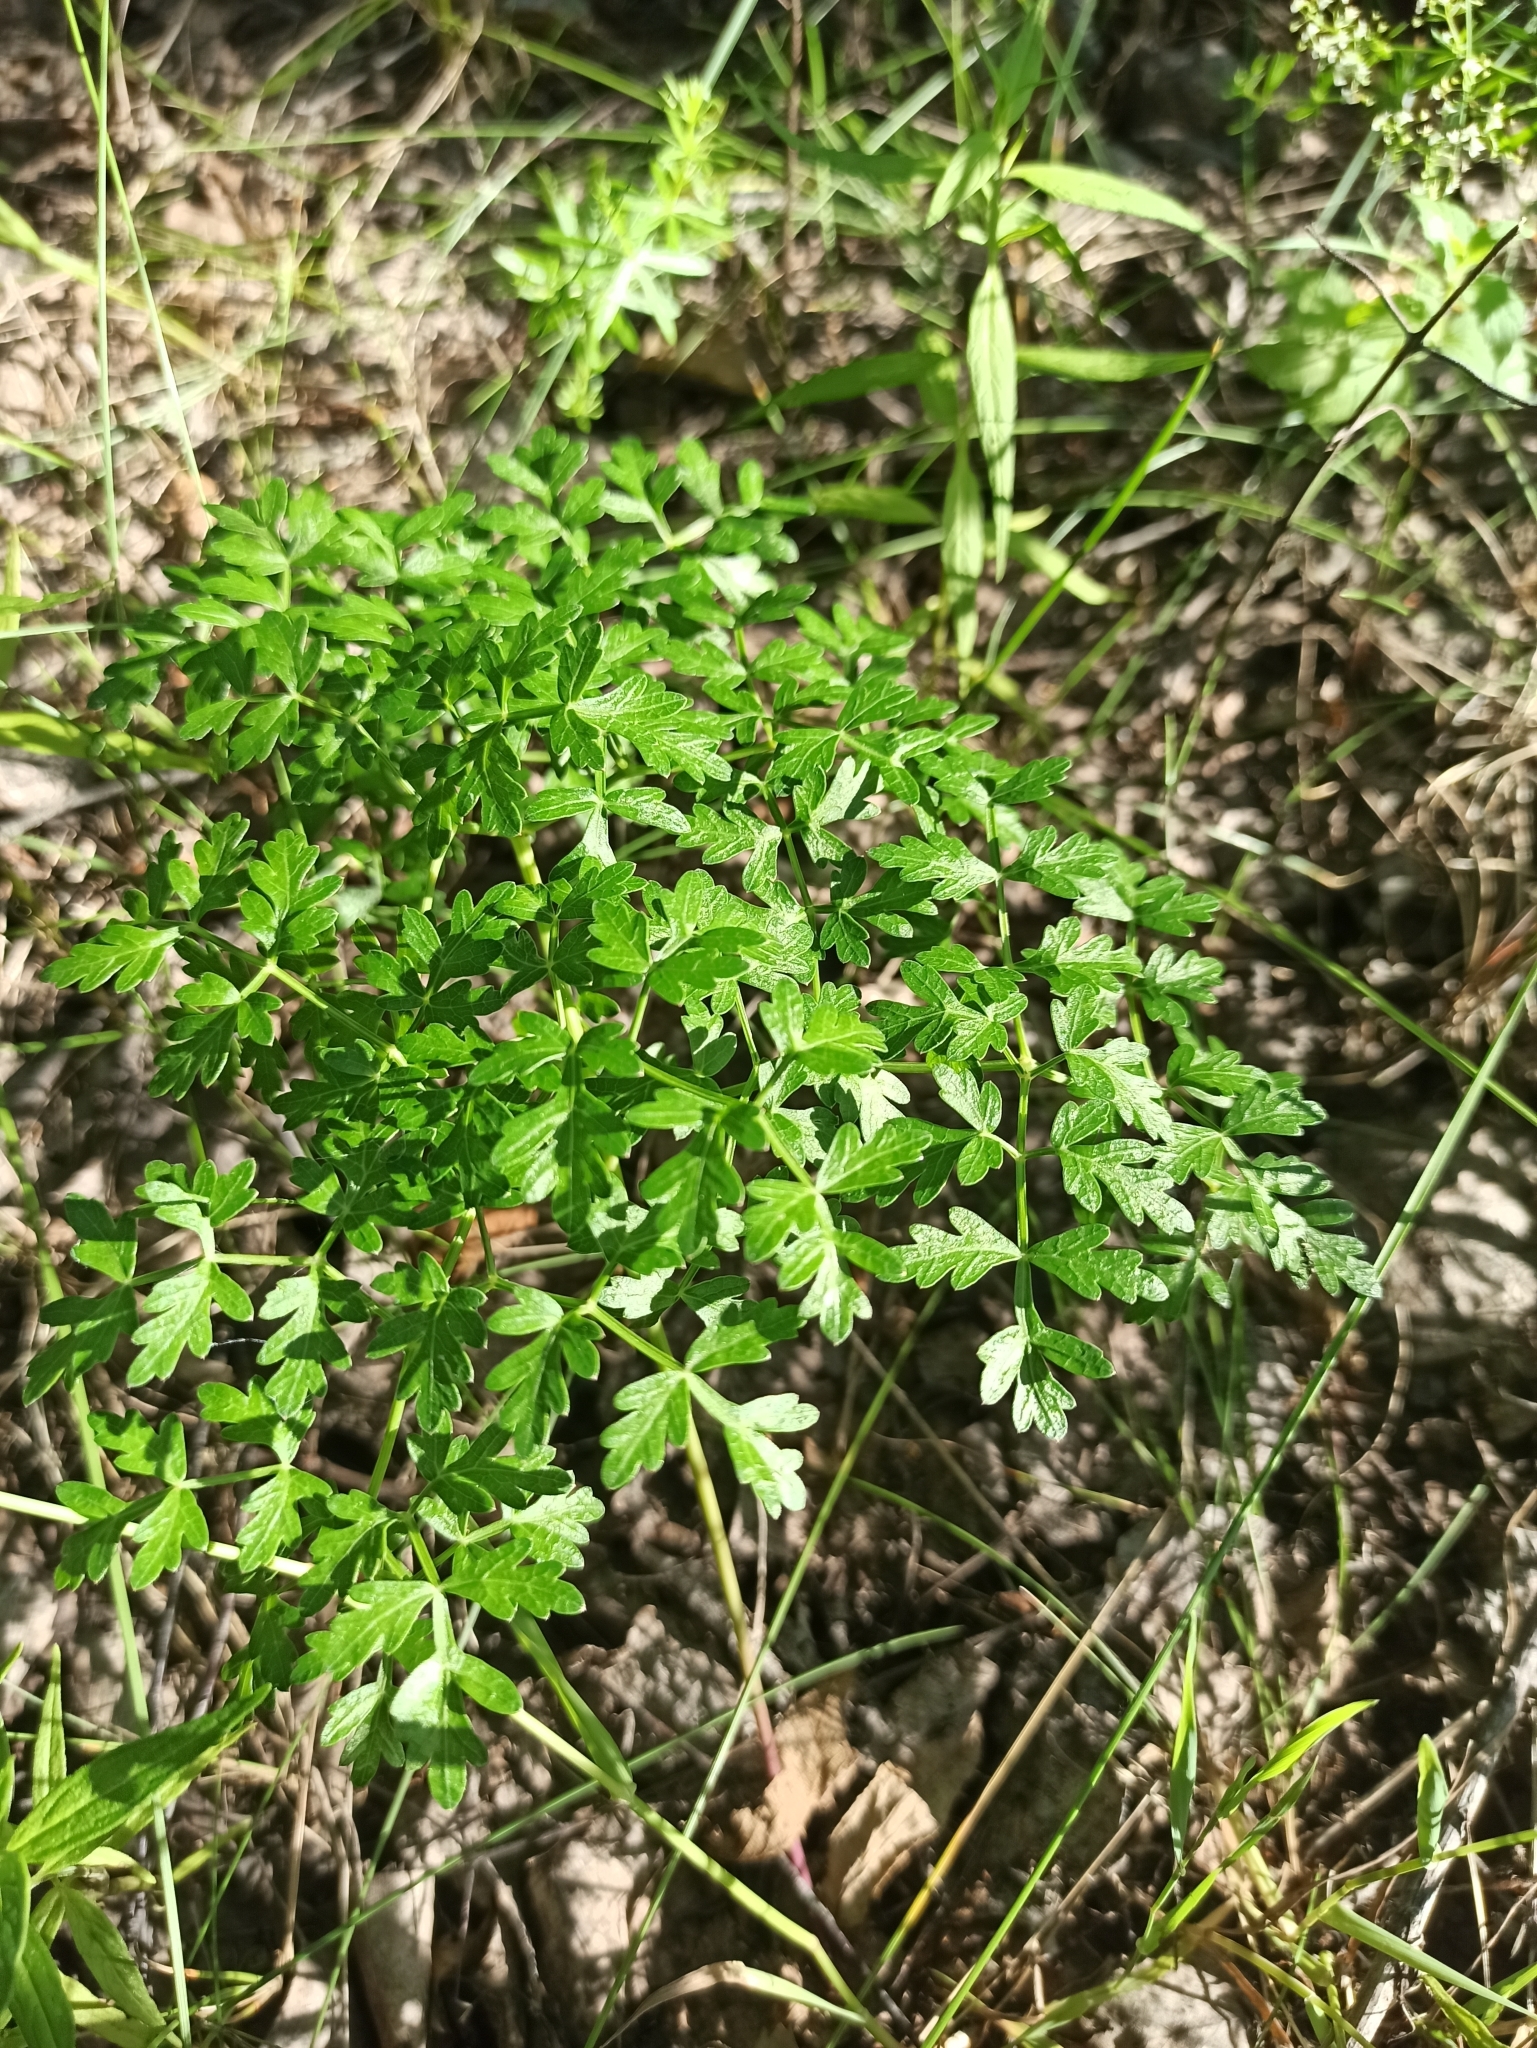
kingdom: Plantae
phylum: Tracheophyta
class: Magnoliopsida
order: Apiales
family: Apiaceae
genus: Oreoselinum
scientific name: Oreoselinum nigrum
